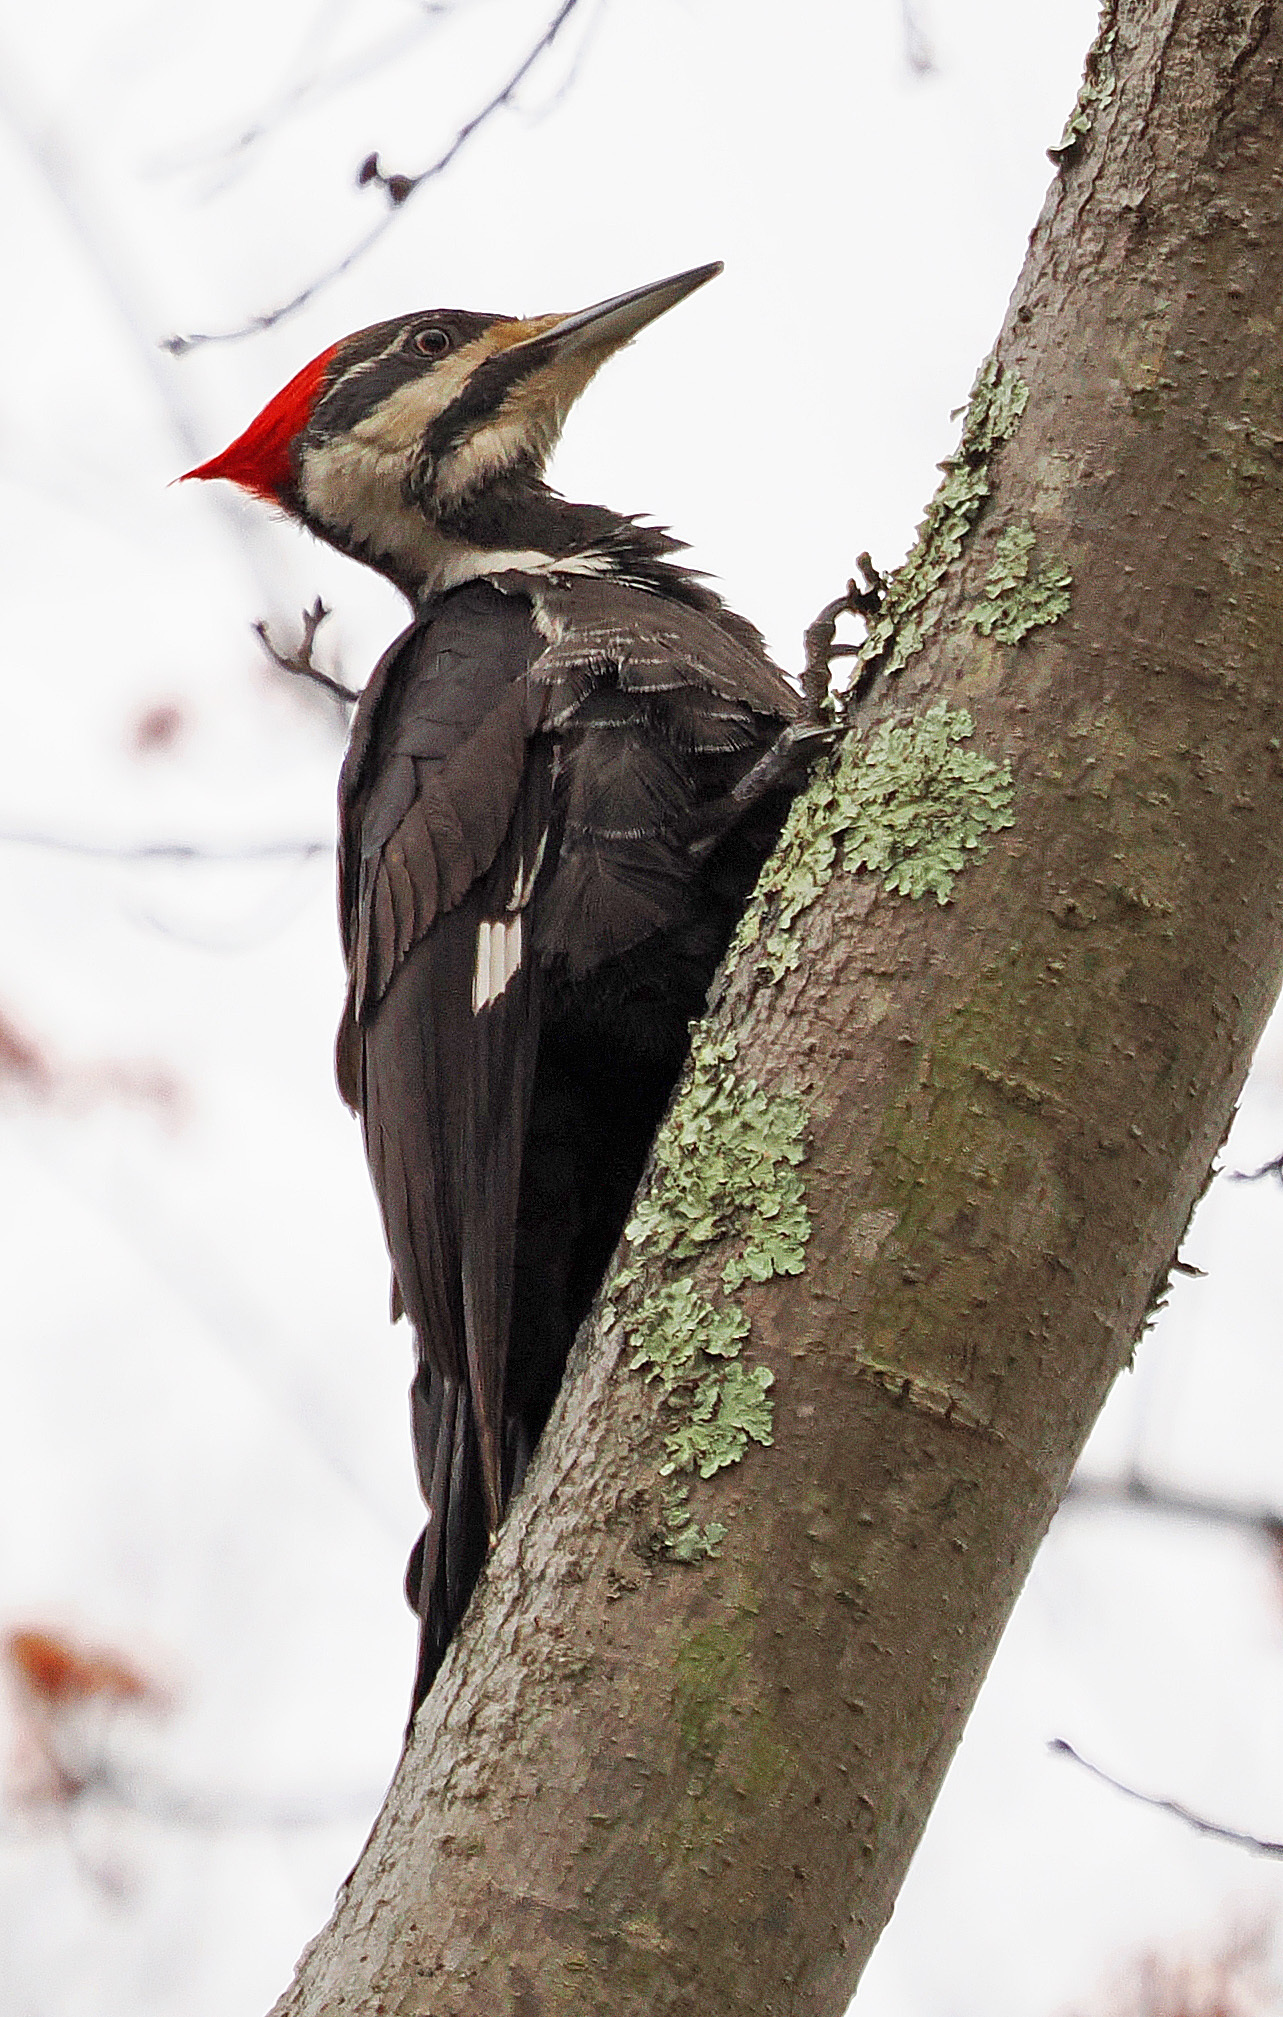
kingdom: Animalia
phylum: Chordata
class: Aves
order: Piciformes
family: Picidae
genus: Dryocopus
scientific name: Dryocopus pileatus
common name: Pileated woodpecker
